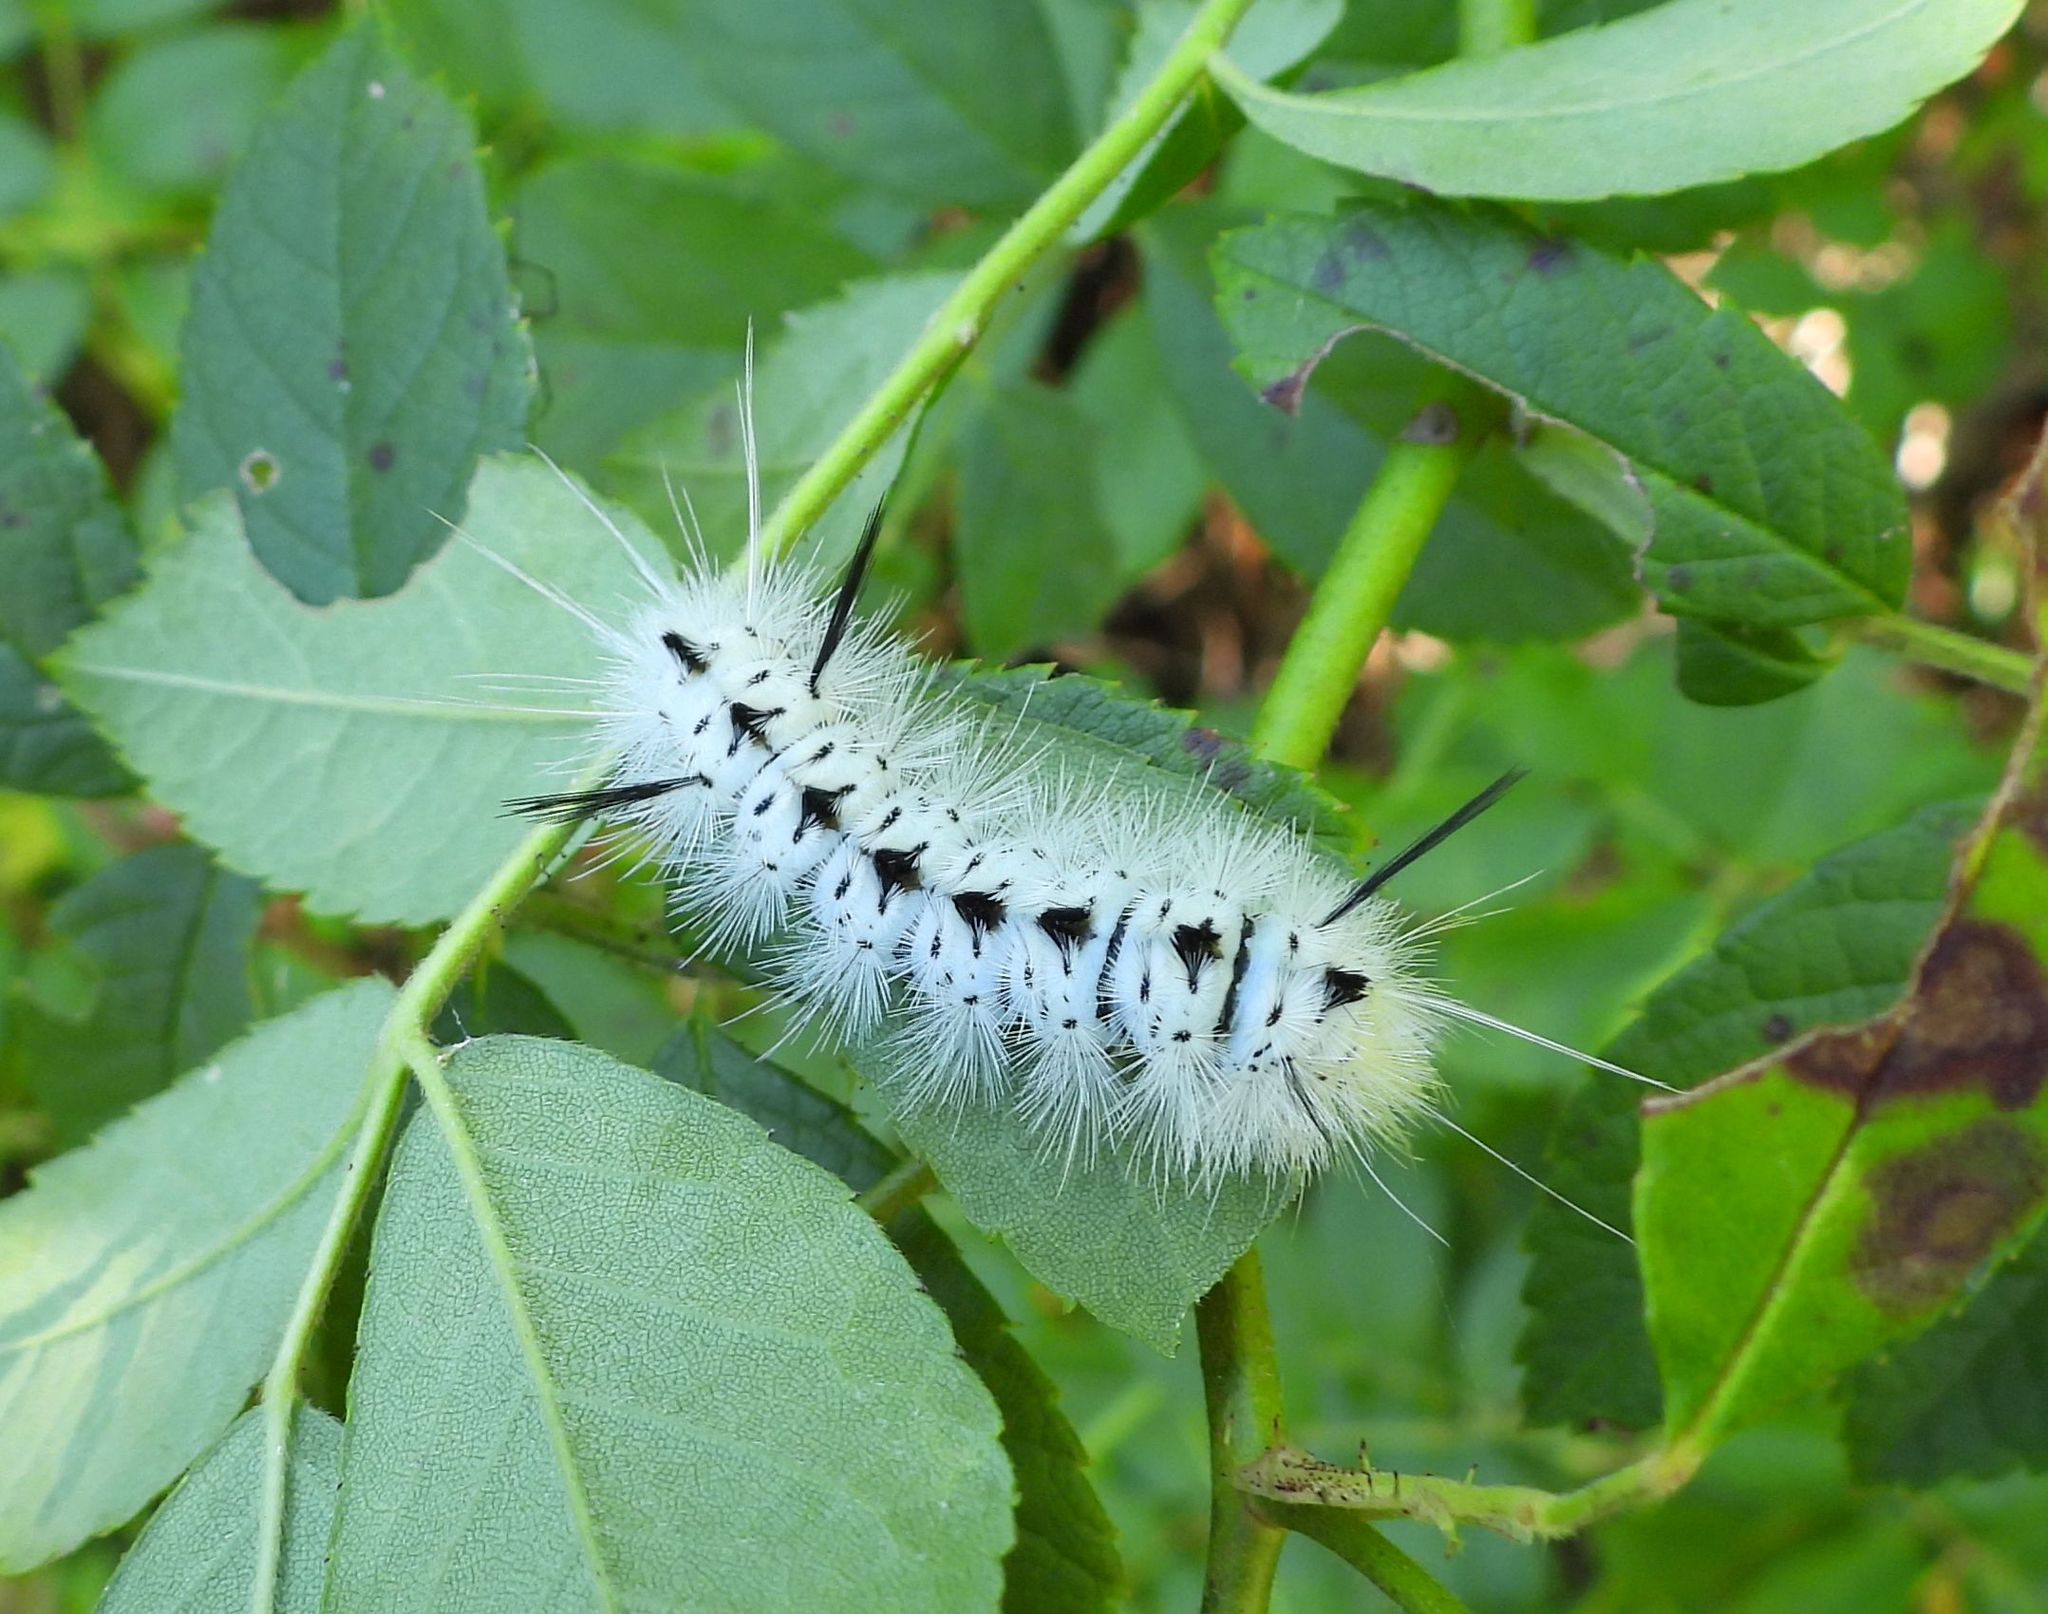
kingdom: Animalia
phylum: Arthropoda
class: Insecta
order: Lepidoptera
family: Erebidae
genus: Lophocampa
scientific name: Lophocampa caryae
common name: Hickory tussock moth
